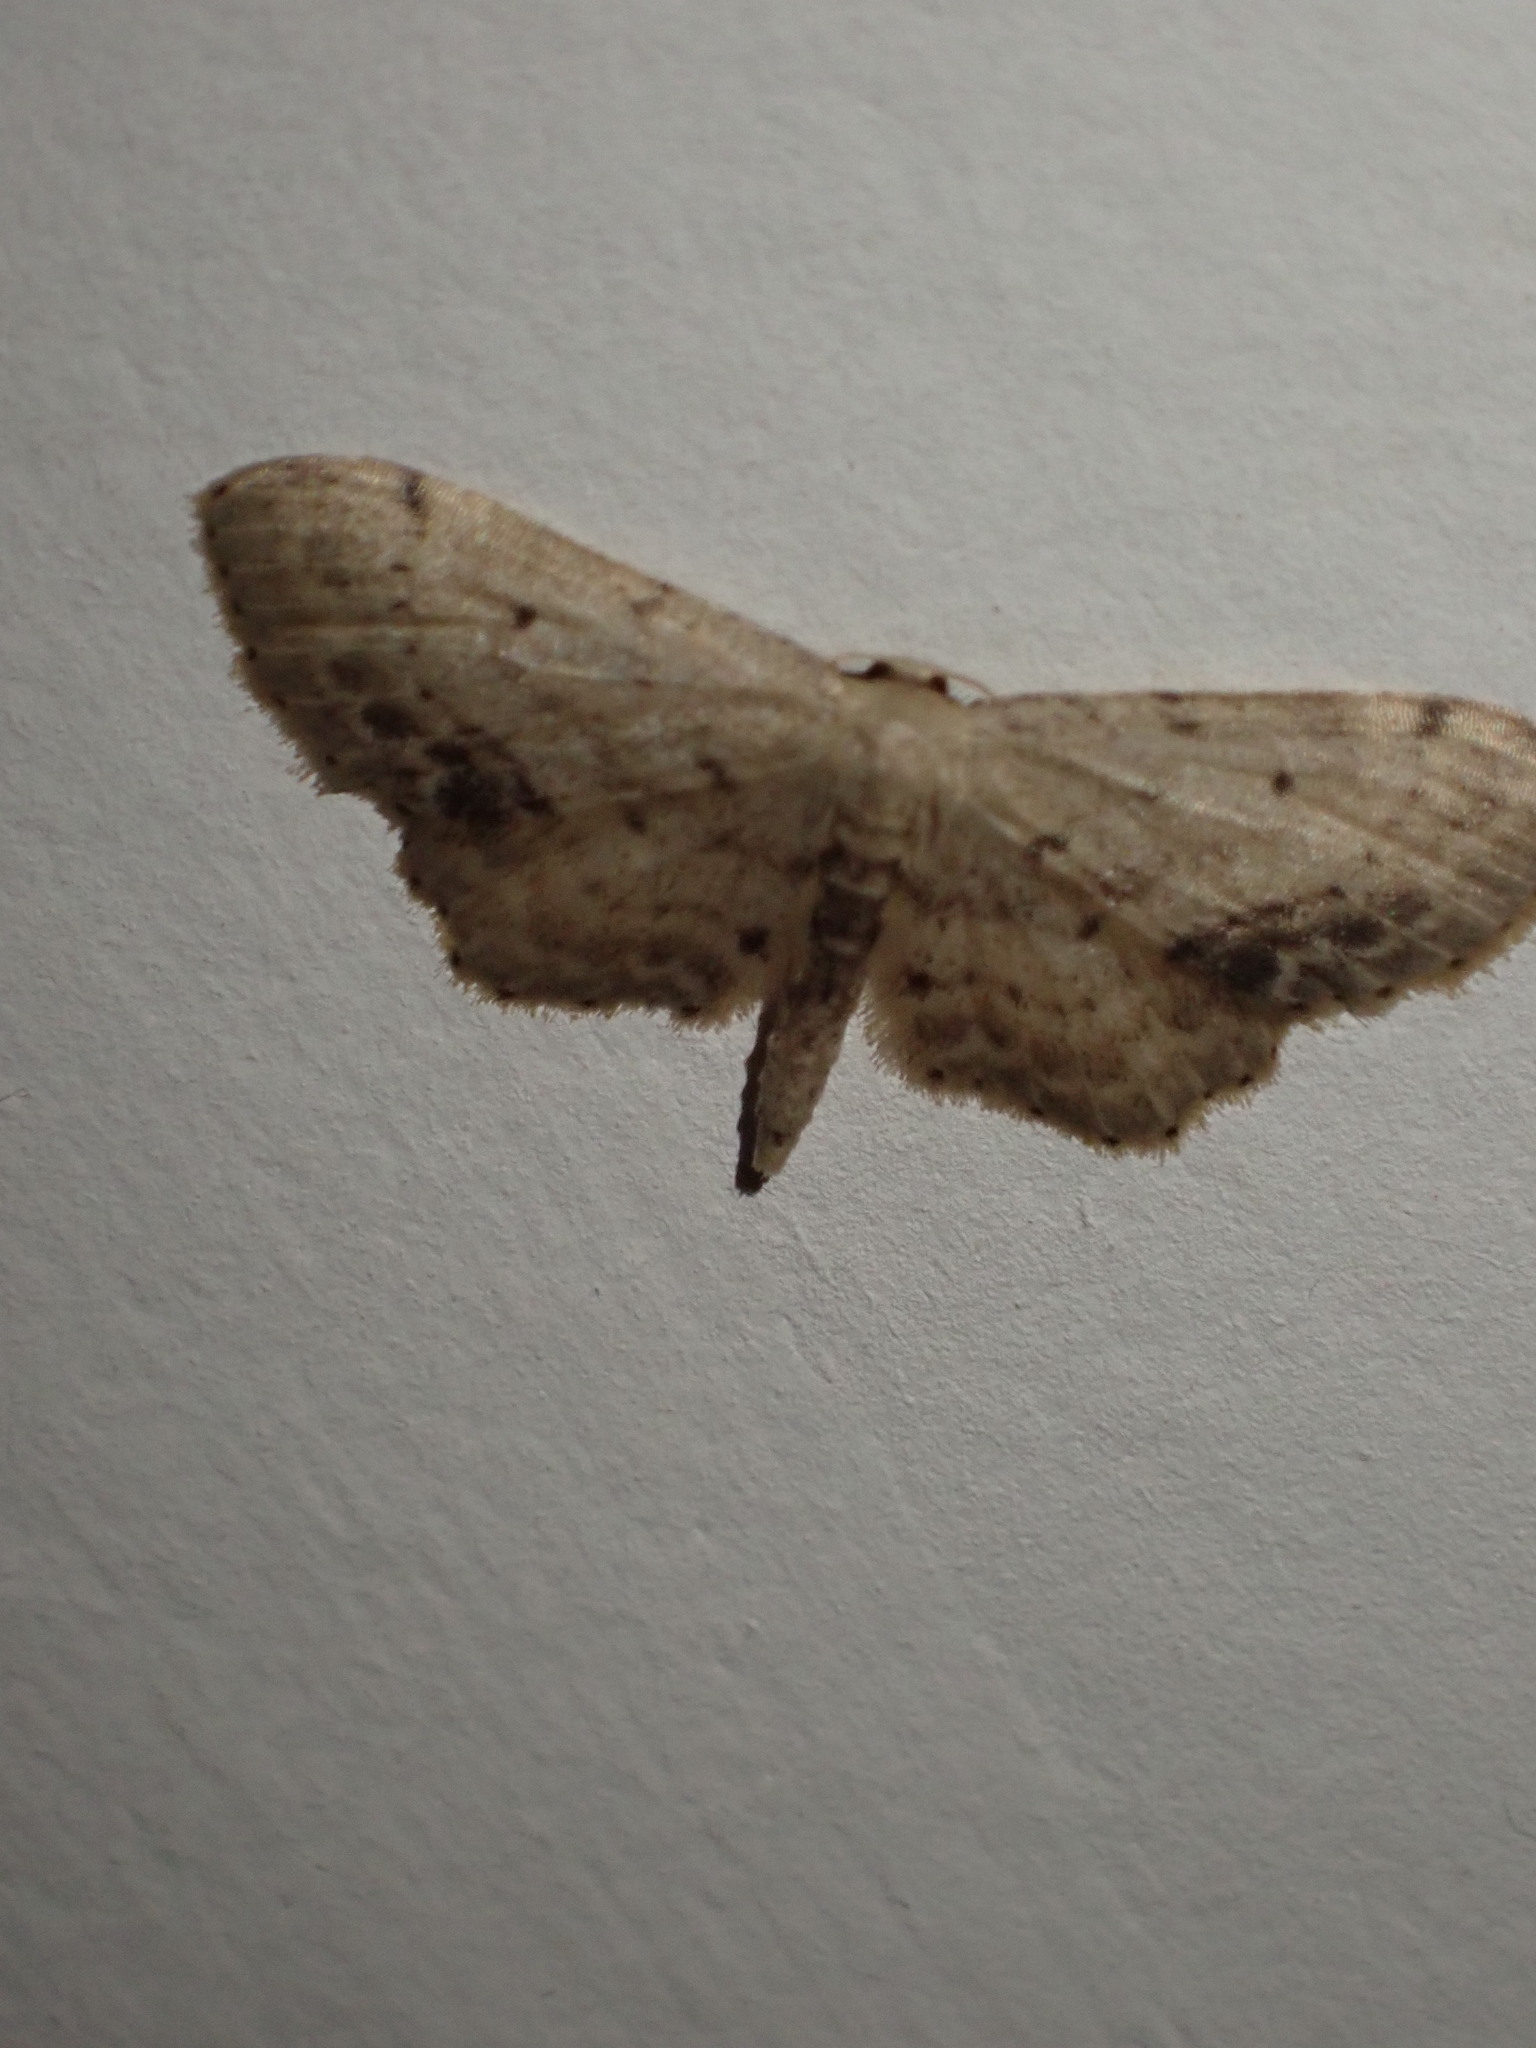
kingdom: Animalia
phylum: Arthropoda
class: Insecta
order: Lepidoptera
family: Geometridae
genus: Idaea
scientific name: Idaea dimidiata
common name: Single-dotted wave
